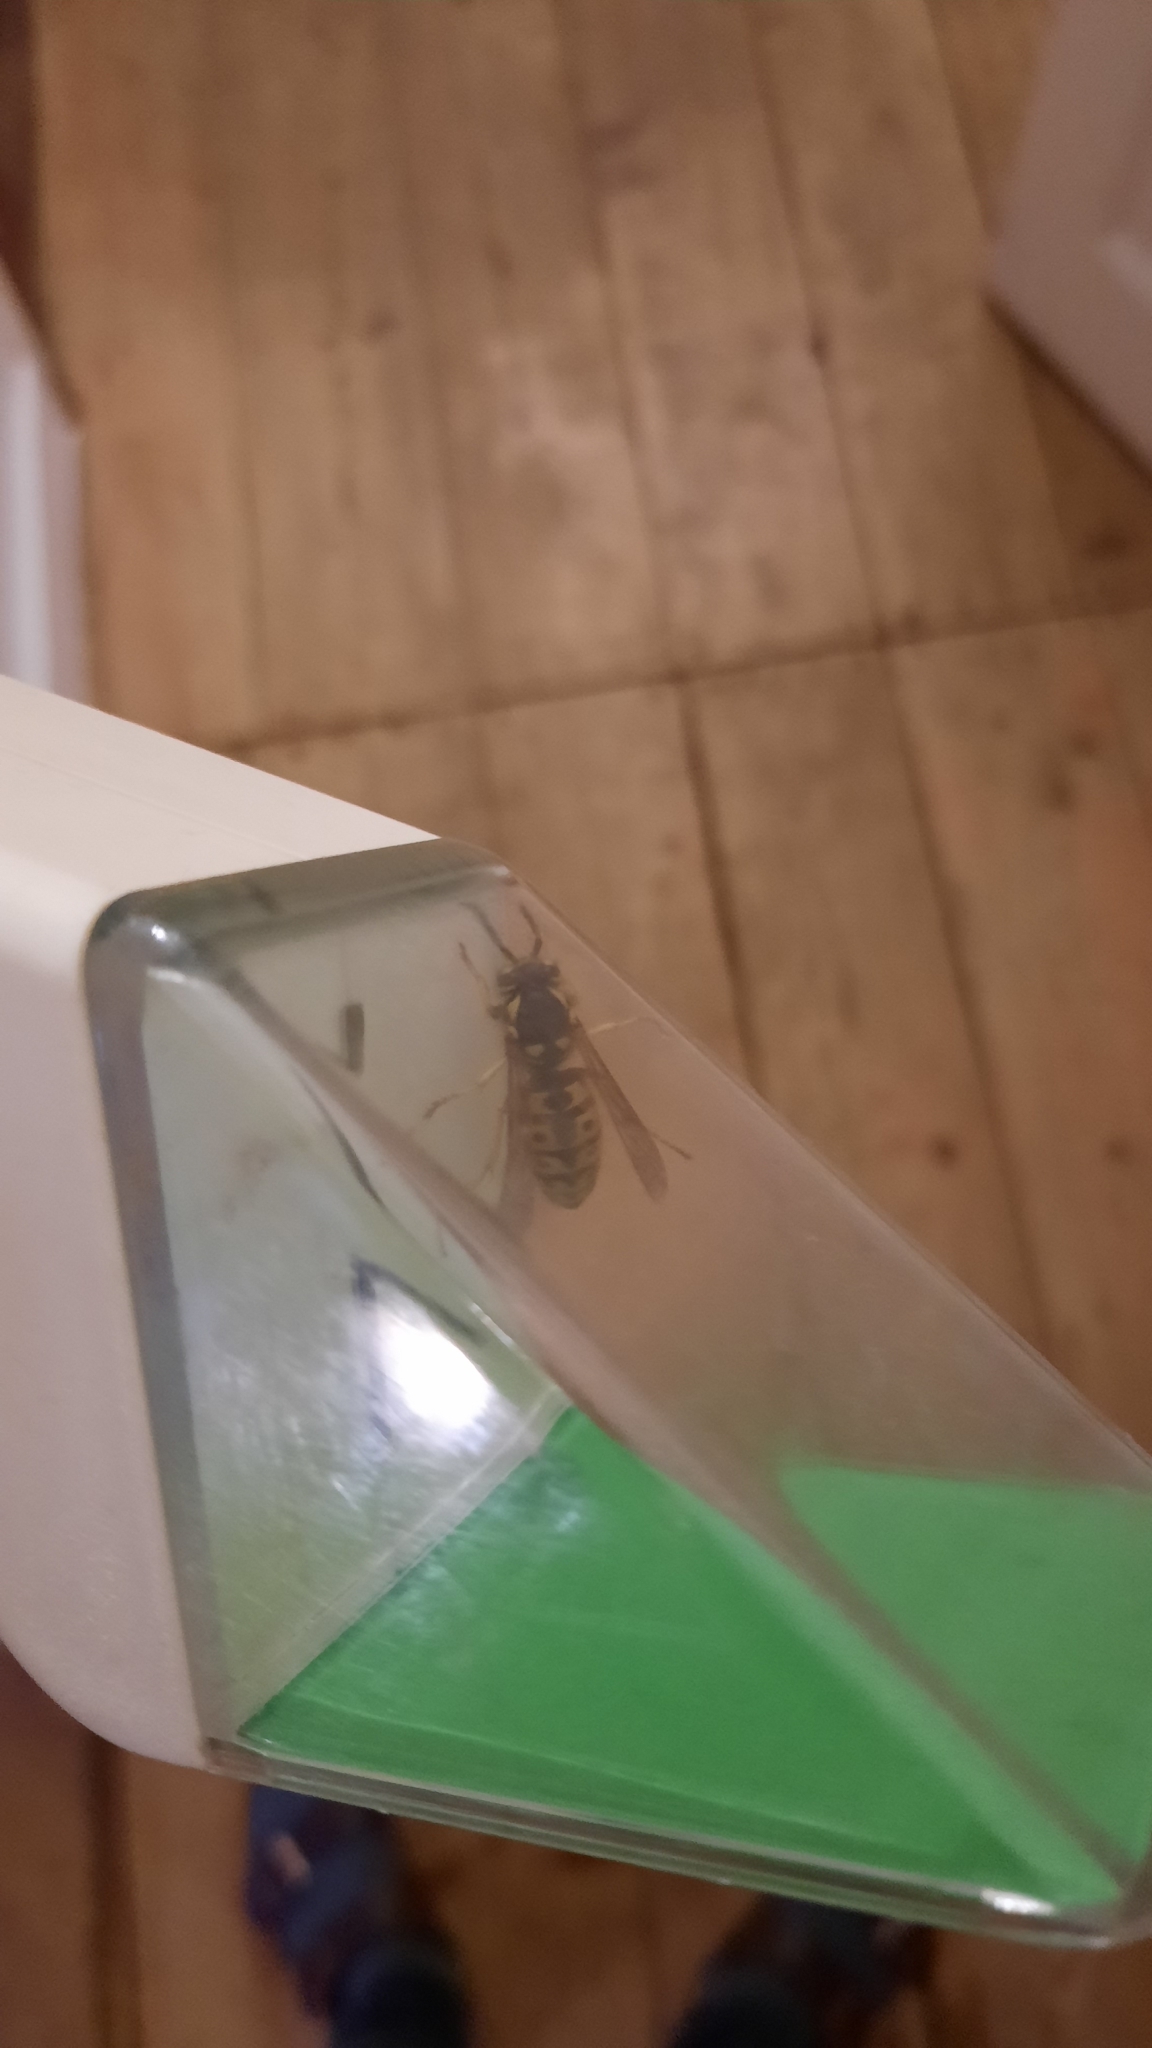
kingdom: Animalia
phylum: Arthropoda
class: Insecta
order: Hymenoptera
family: Vespidae
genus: Vespula
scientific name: Vespula germanica
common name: German wasp
